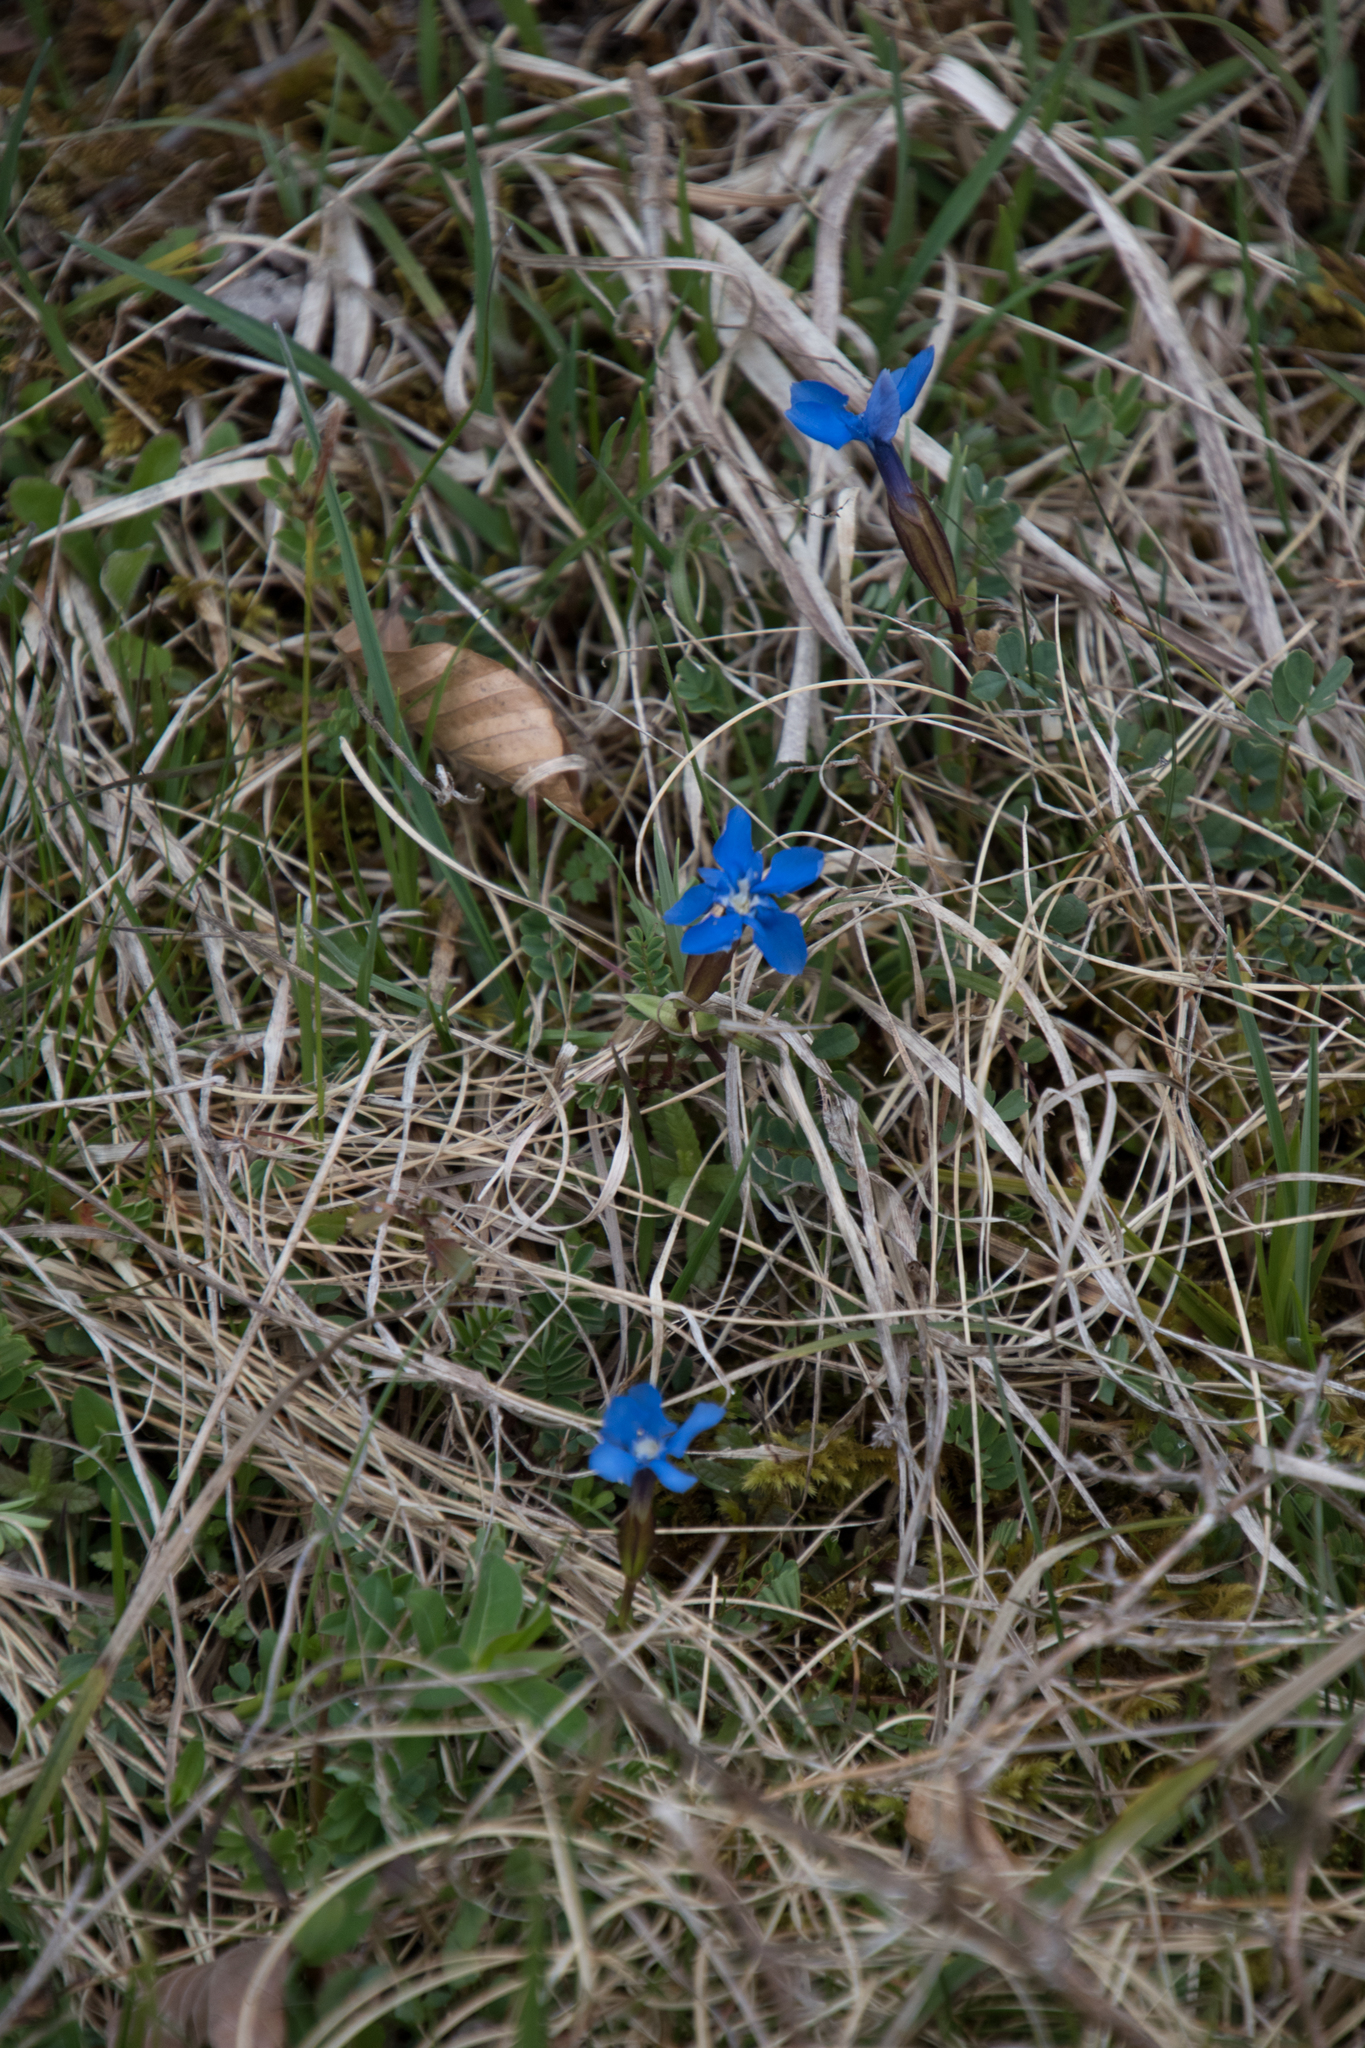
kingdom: Plantae
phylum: Tracheophyta
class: Magnoliopsida
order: Gentianales
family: Gentianaceae
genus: Gentiana
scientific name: Gentiana verna
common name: Spring gentian
